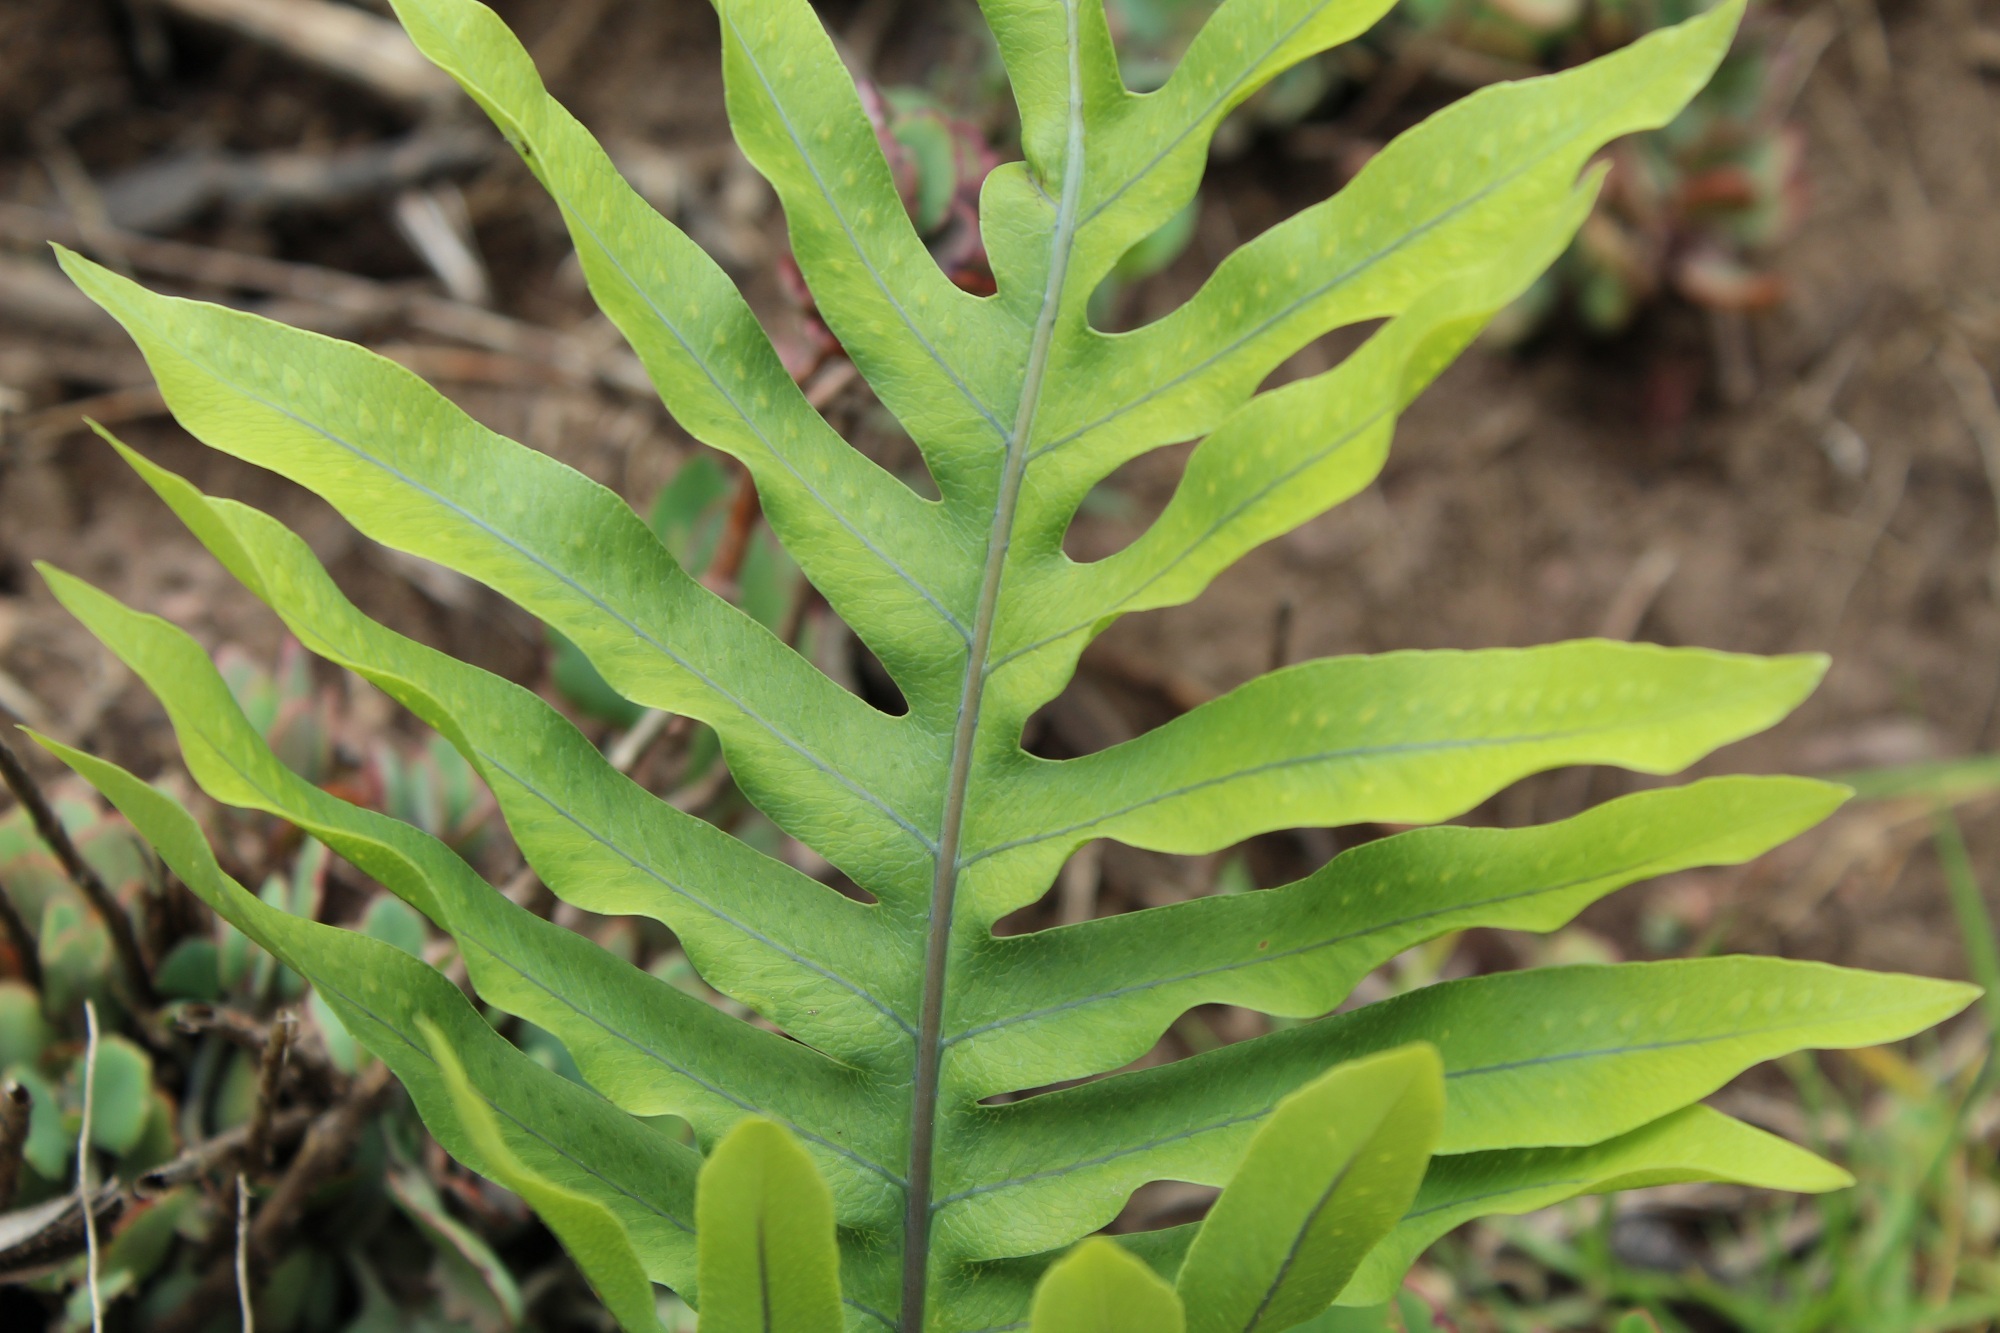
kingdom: Plantae
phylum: Tracheophyta
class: Polypodiopsida
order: Polypodiales
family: Polypodiaceae
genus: Phlebodium
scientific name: Phlebodium aureum
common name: Gold-foot fern
